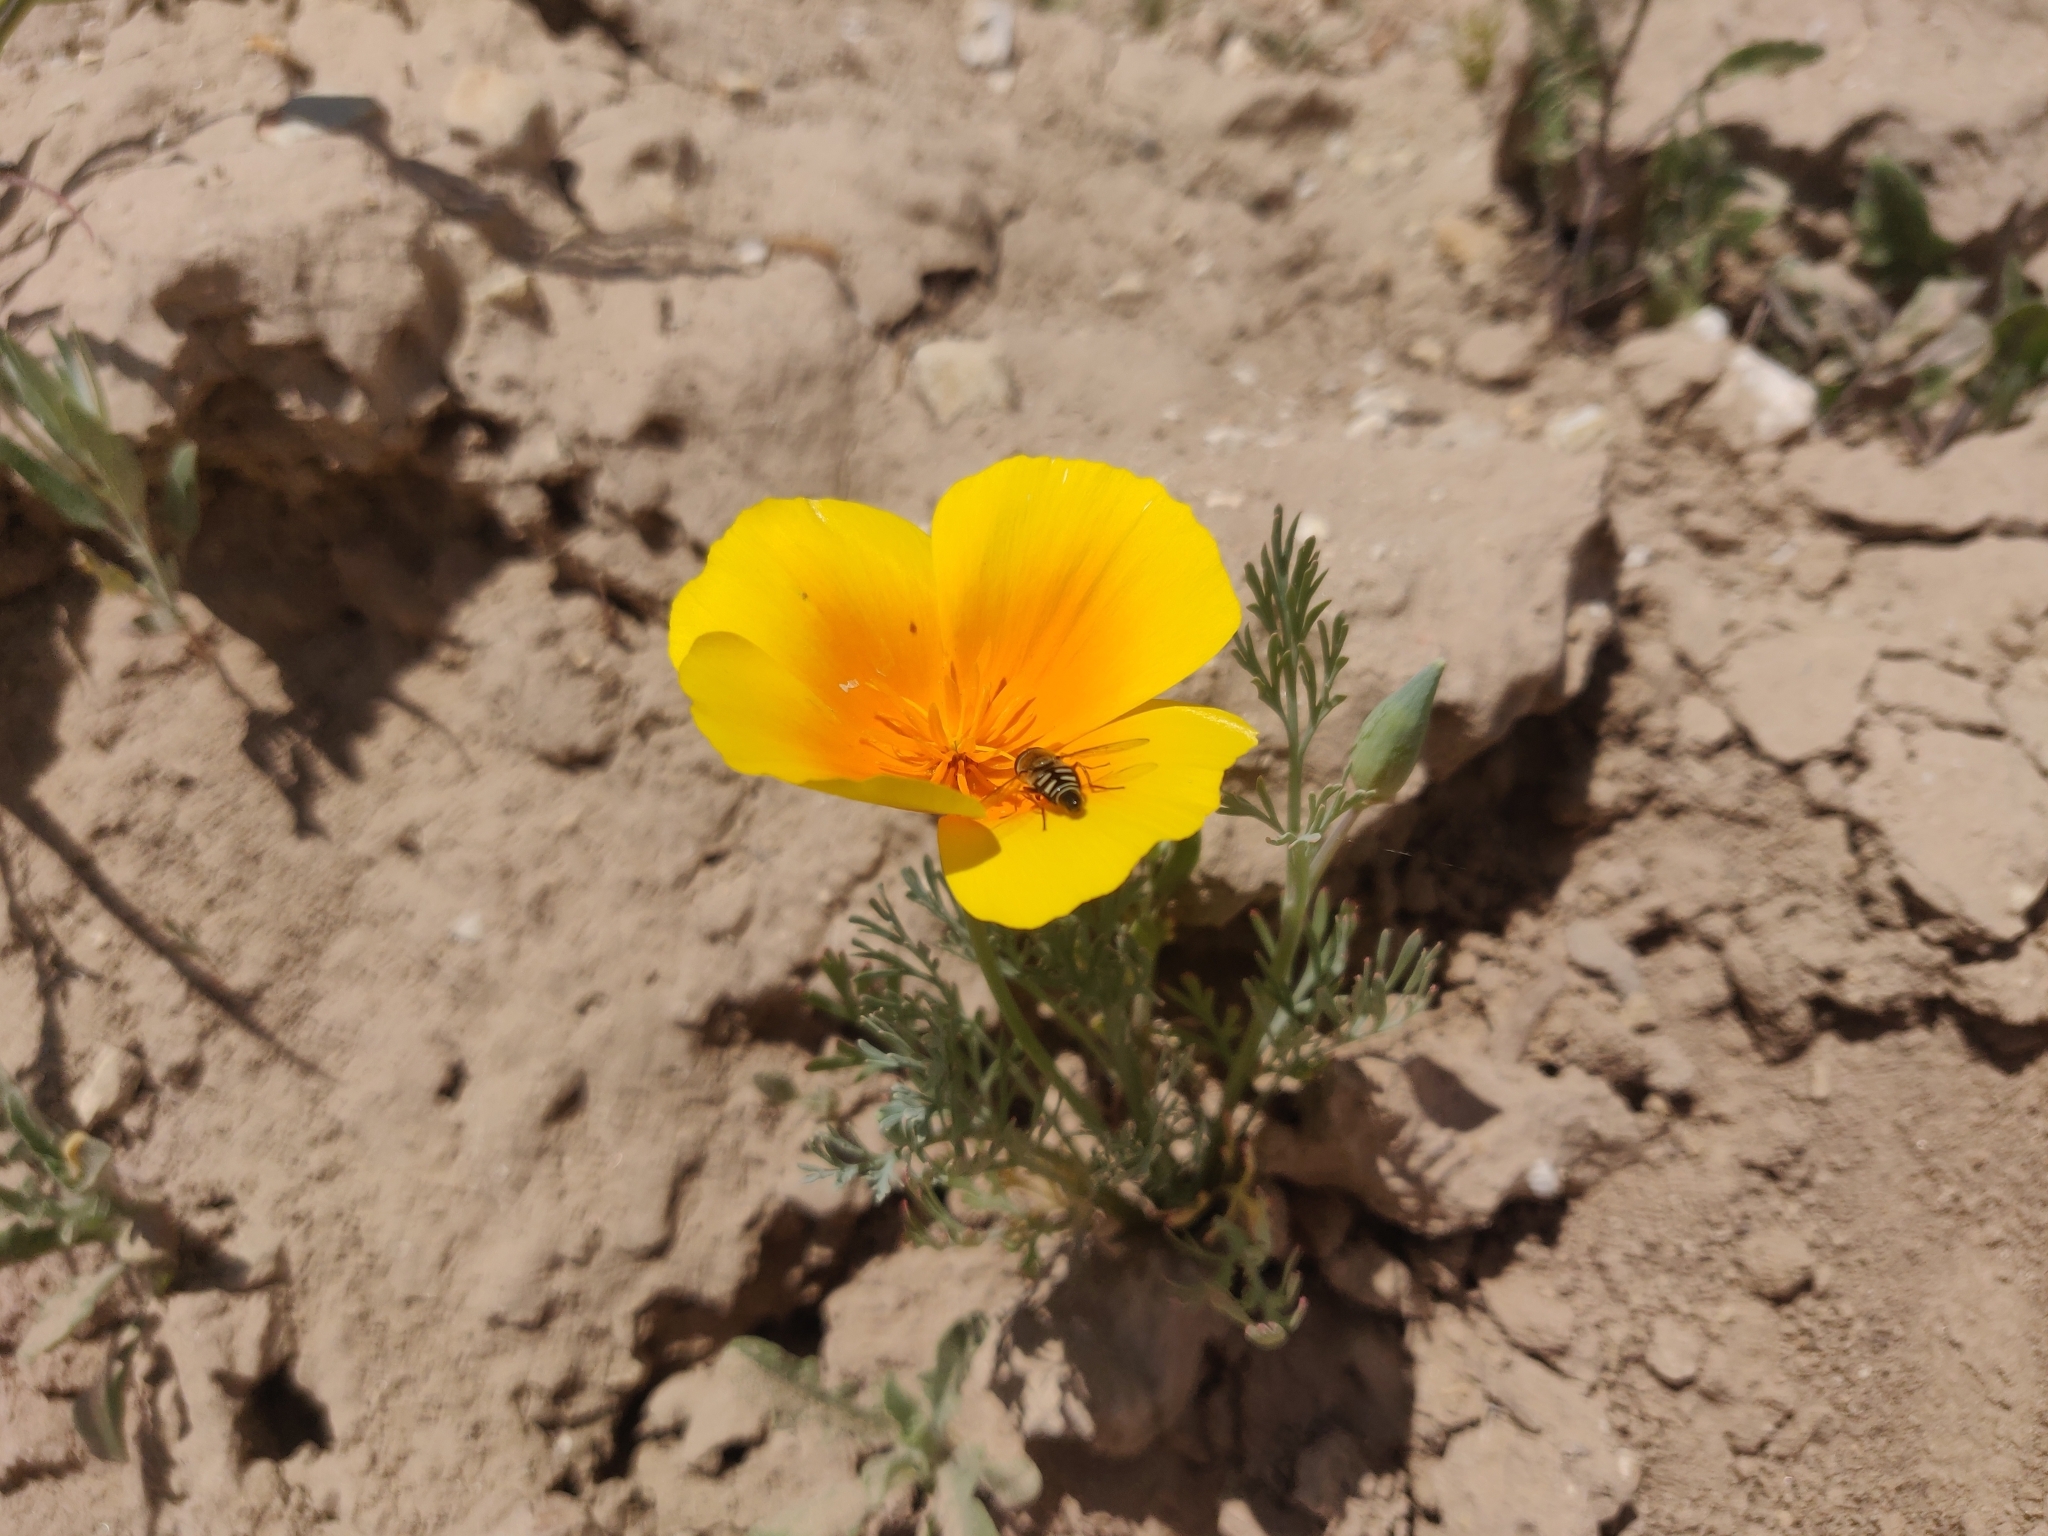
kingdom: Animalia
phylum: Arthropoda
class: Insecta
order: Diptera
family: Syrphidae
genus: Eupeodes
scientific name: Eupeodes volucris
